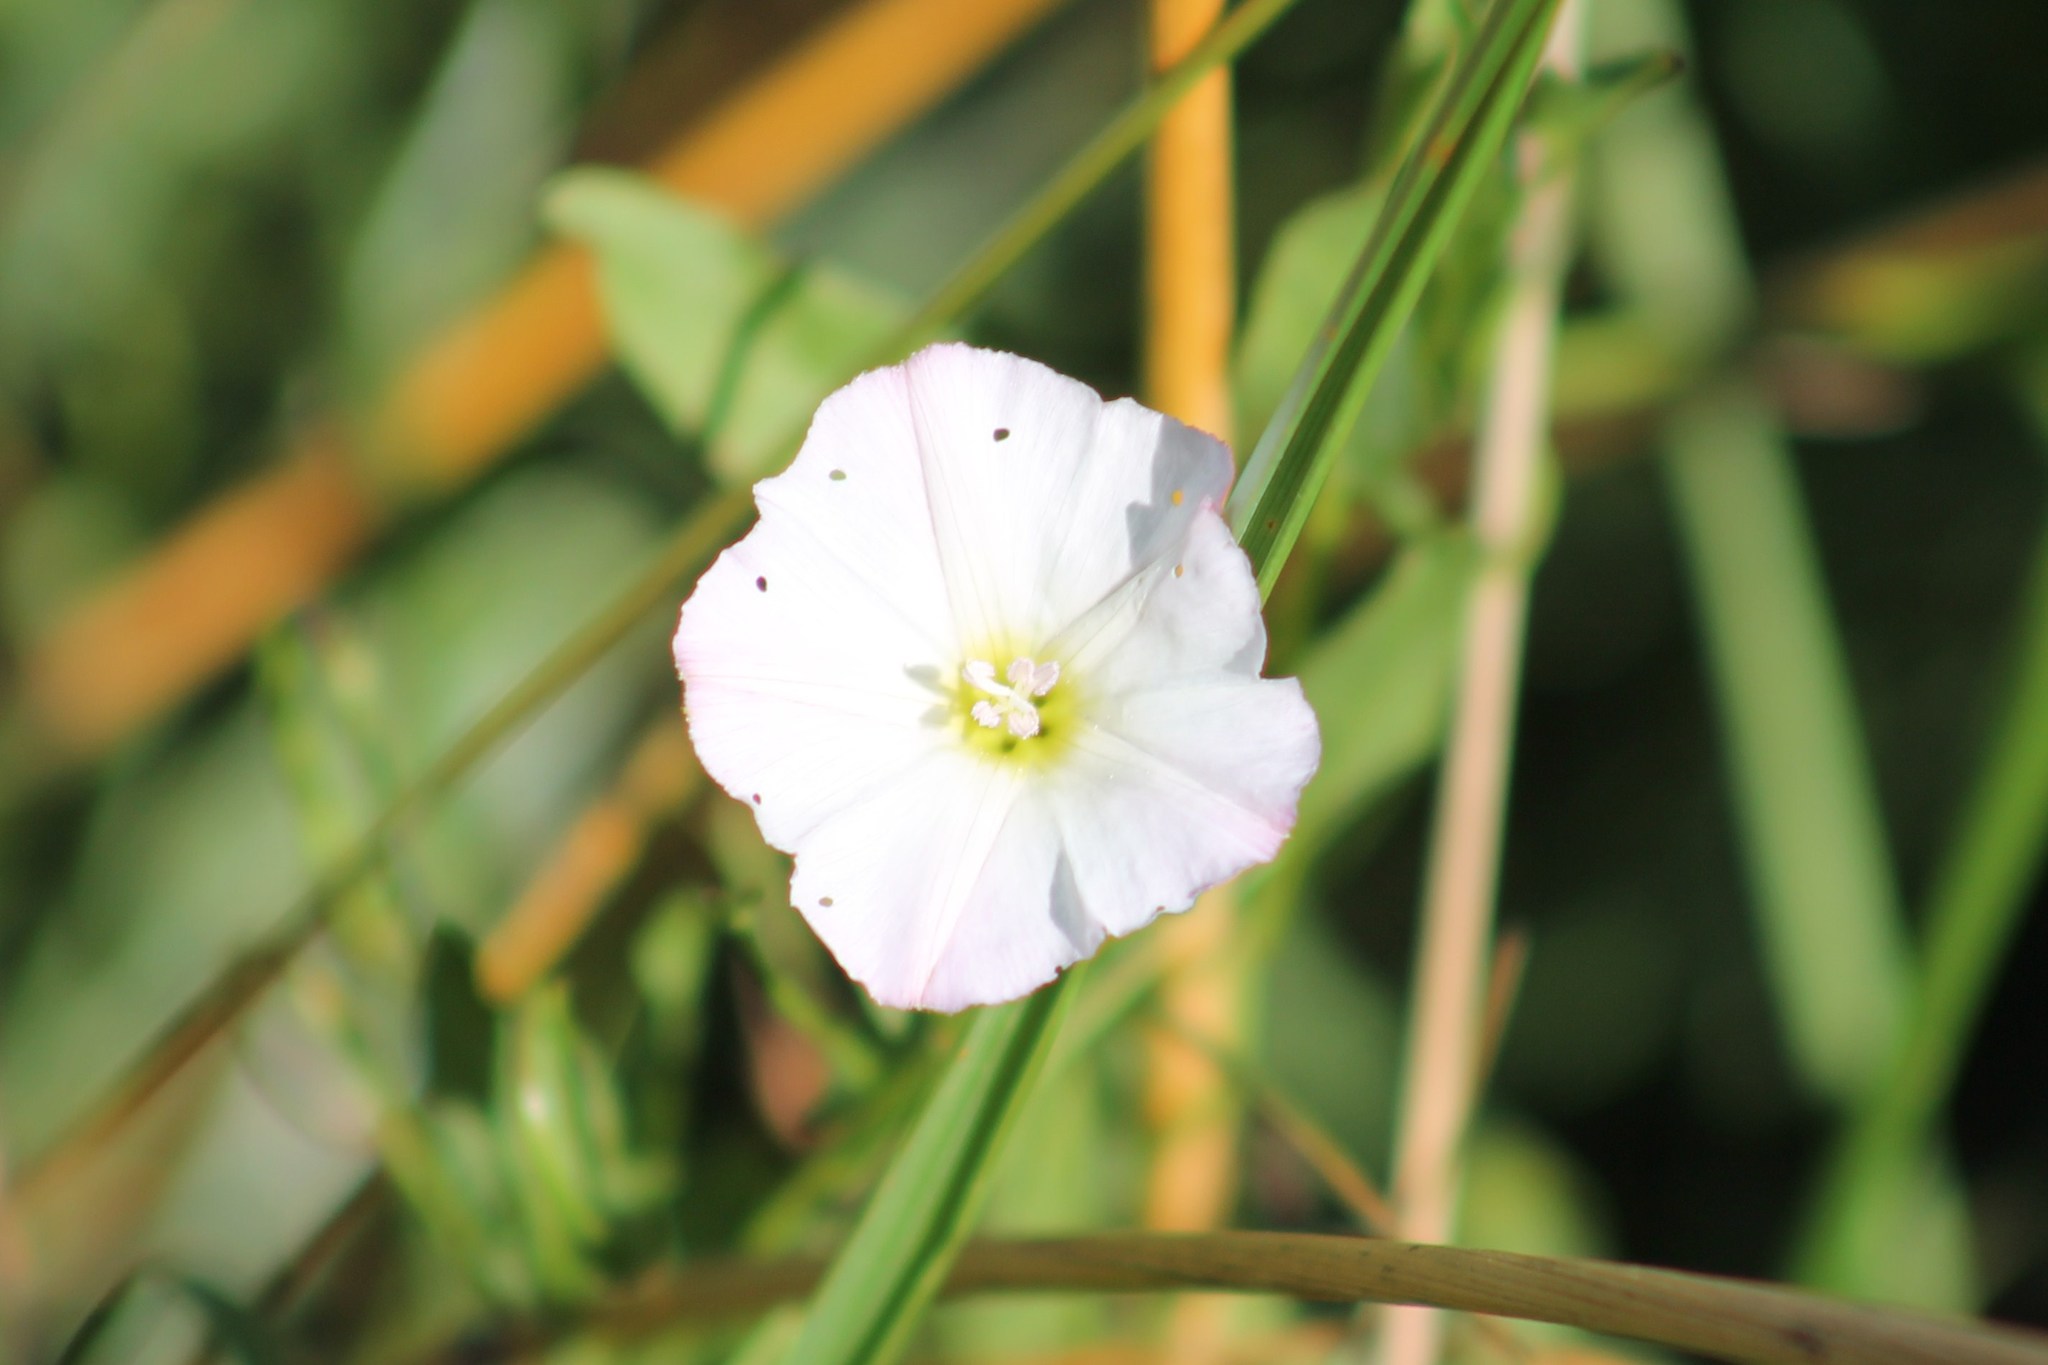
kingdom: Plantae
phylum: Tracheophyta
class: Magnoliopsida
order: Solanales
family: Convolvulaceae
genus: Convolvulus
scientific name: Convolvulus arvensis
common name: Field bindweed
